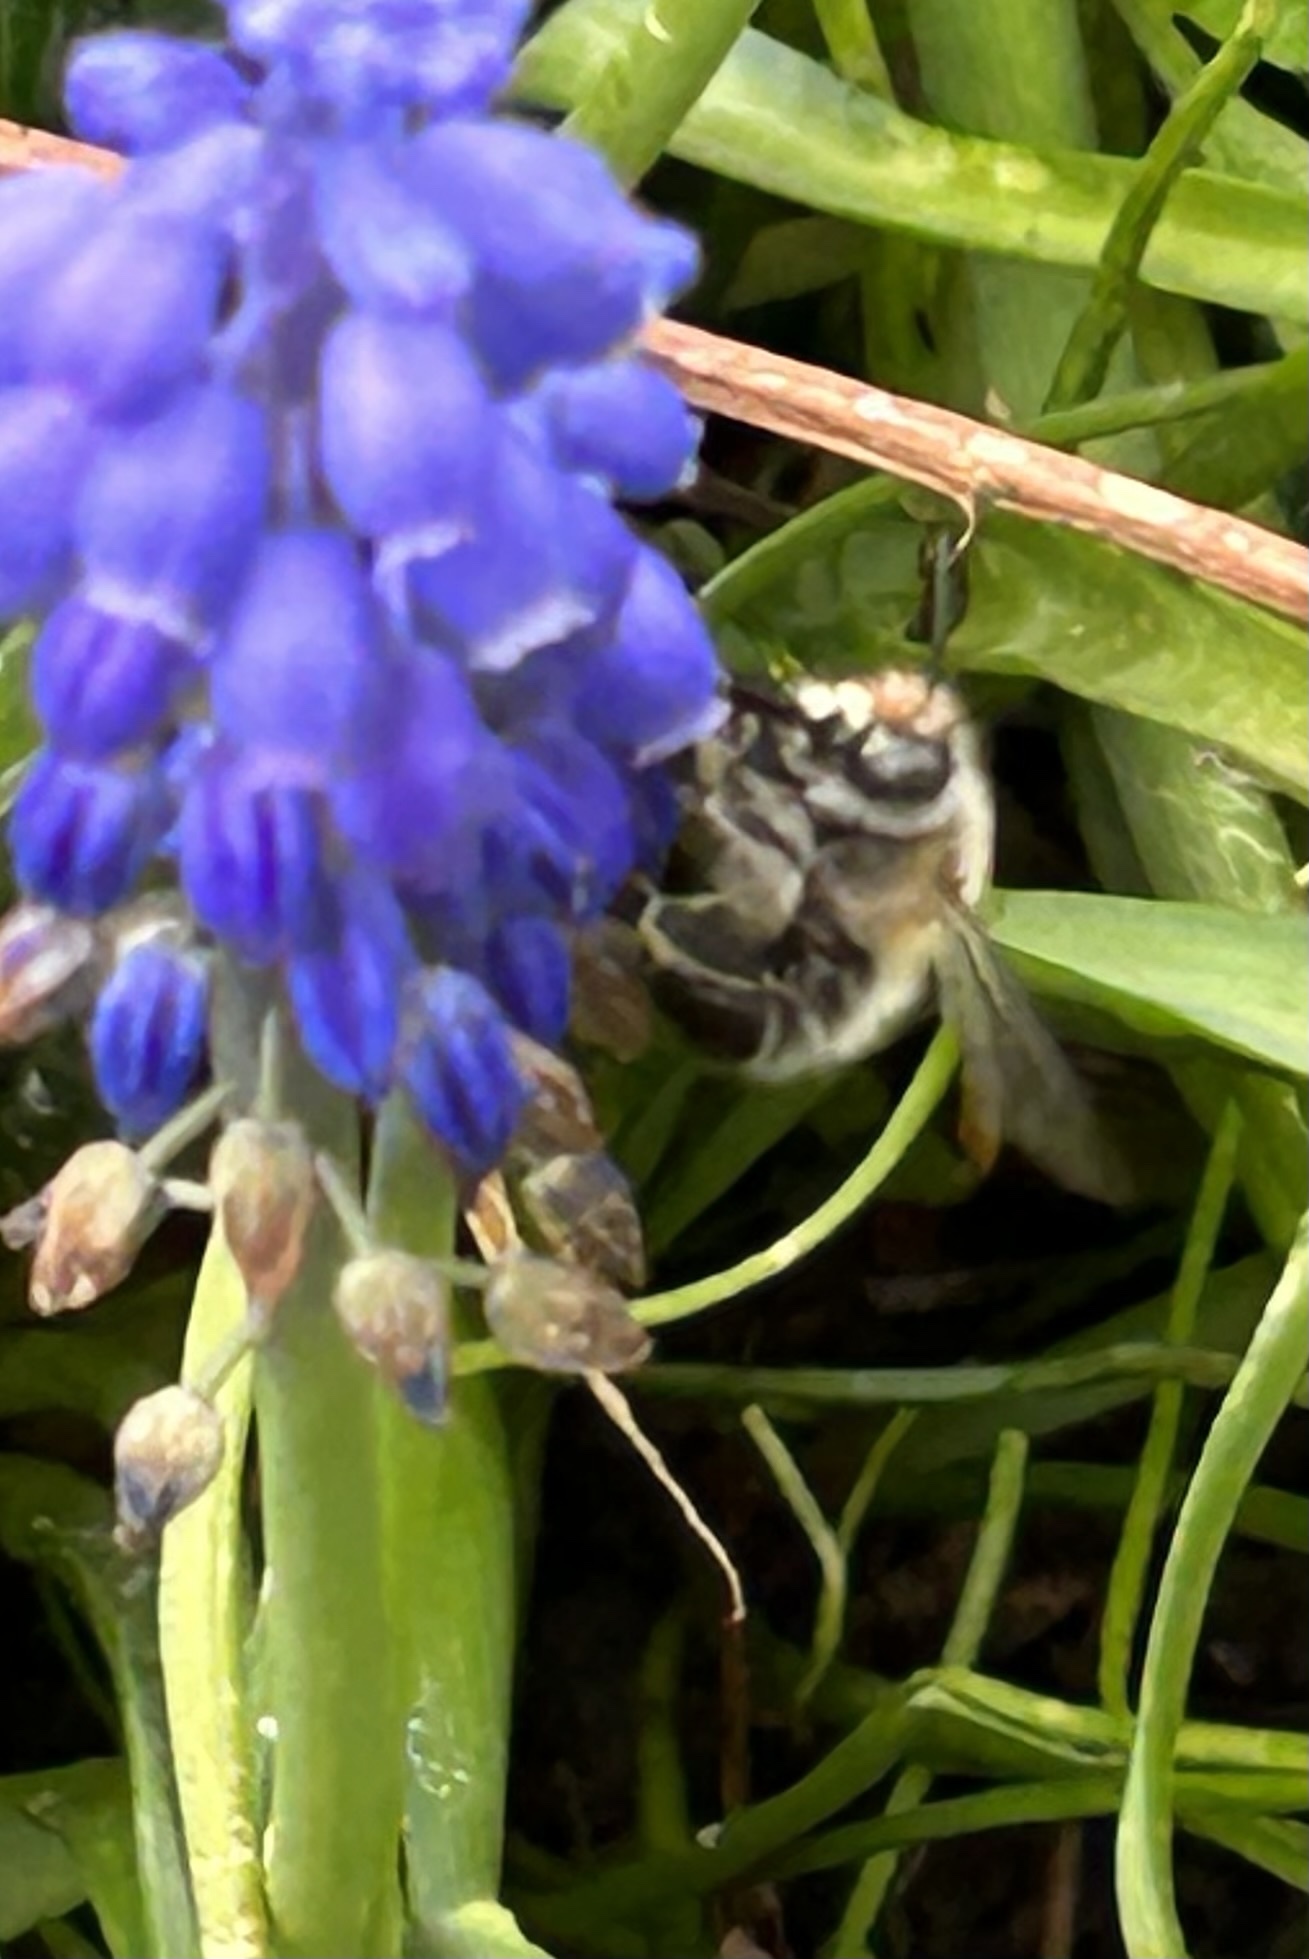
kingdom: Animalia
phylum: Arthropoda
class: Insecta
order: Hymenoptera
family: Apidae
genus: Anthophora
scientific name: Anthophora plumipes
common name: Hairy-footed flower bee
